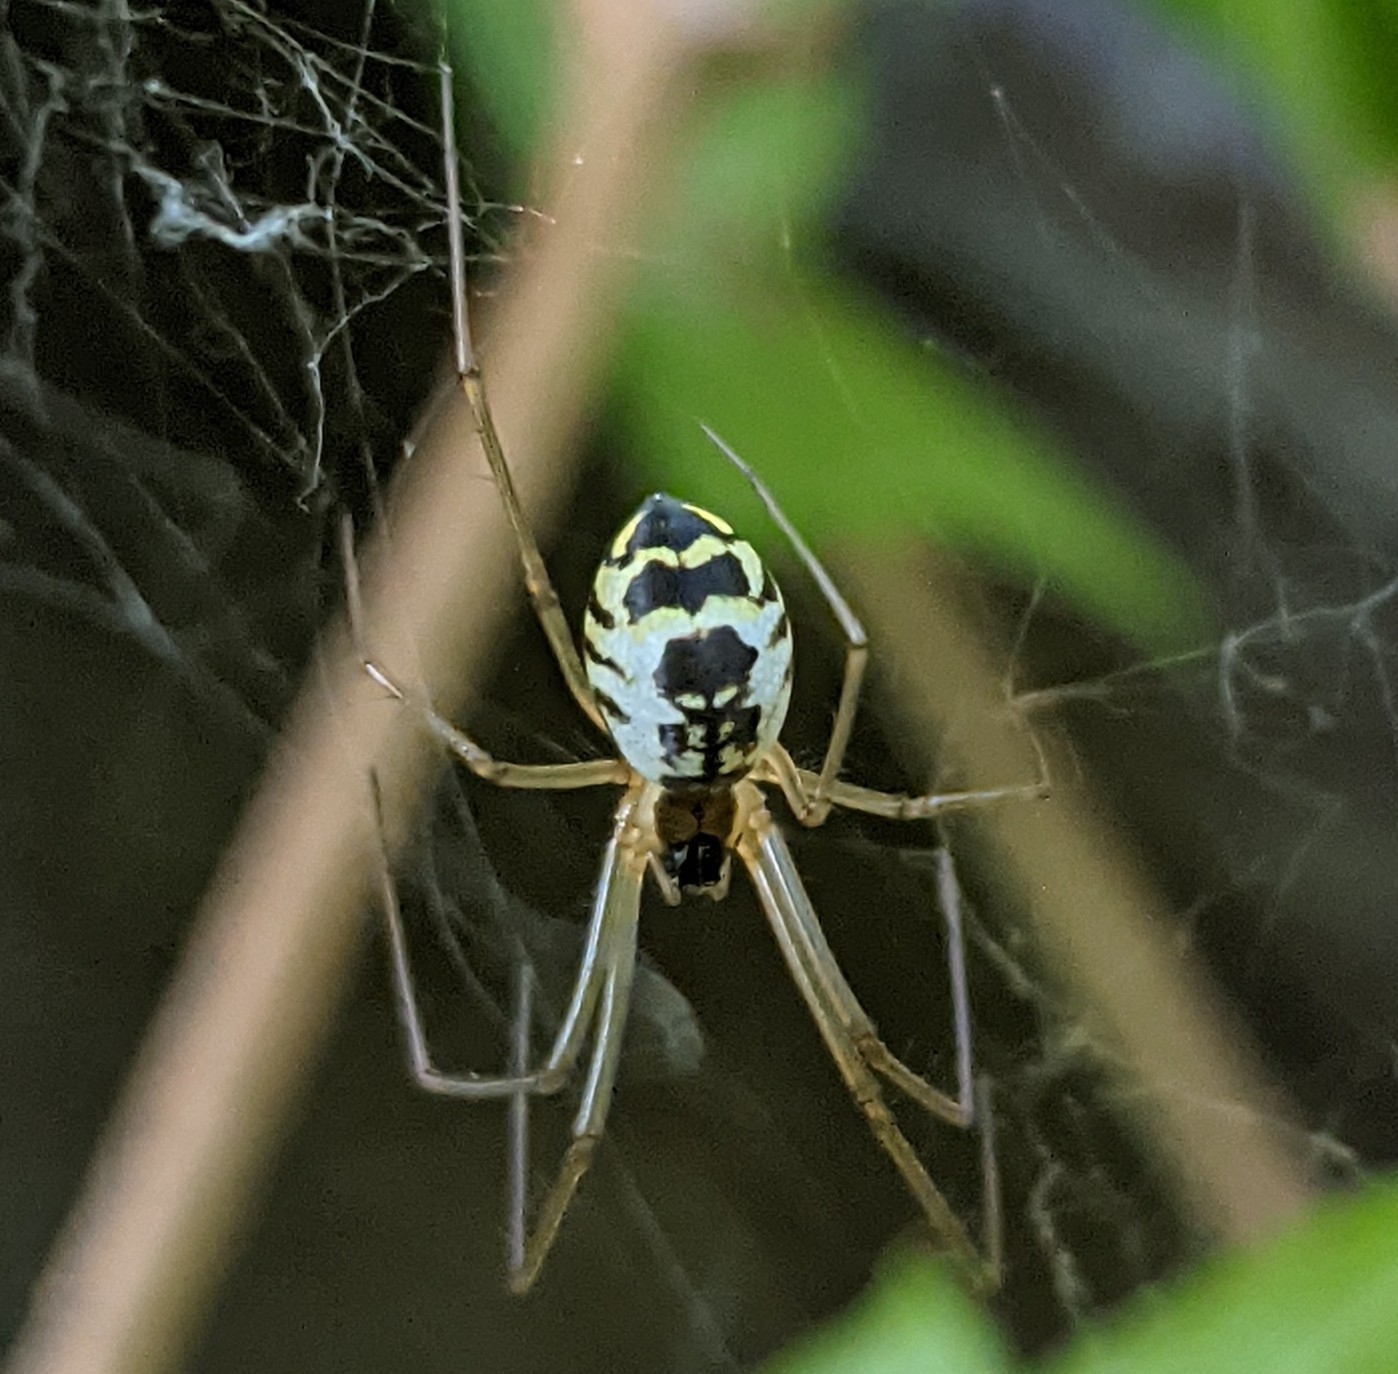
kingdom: Animalia
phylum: Arthropoda
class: Arachnida
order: Araneae
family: Linyphiidae
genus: Neriene
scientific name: Neriene radiata
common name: Filmy dome spider
